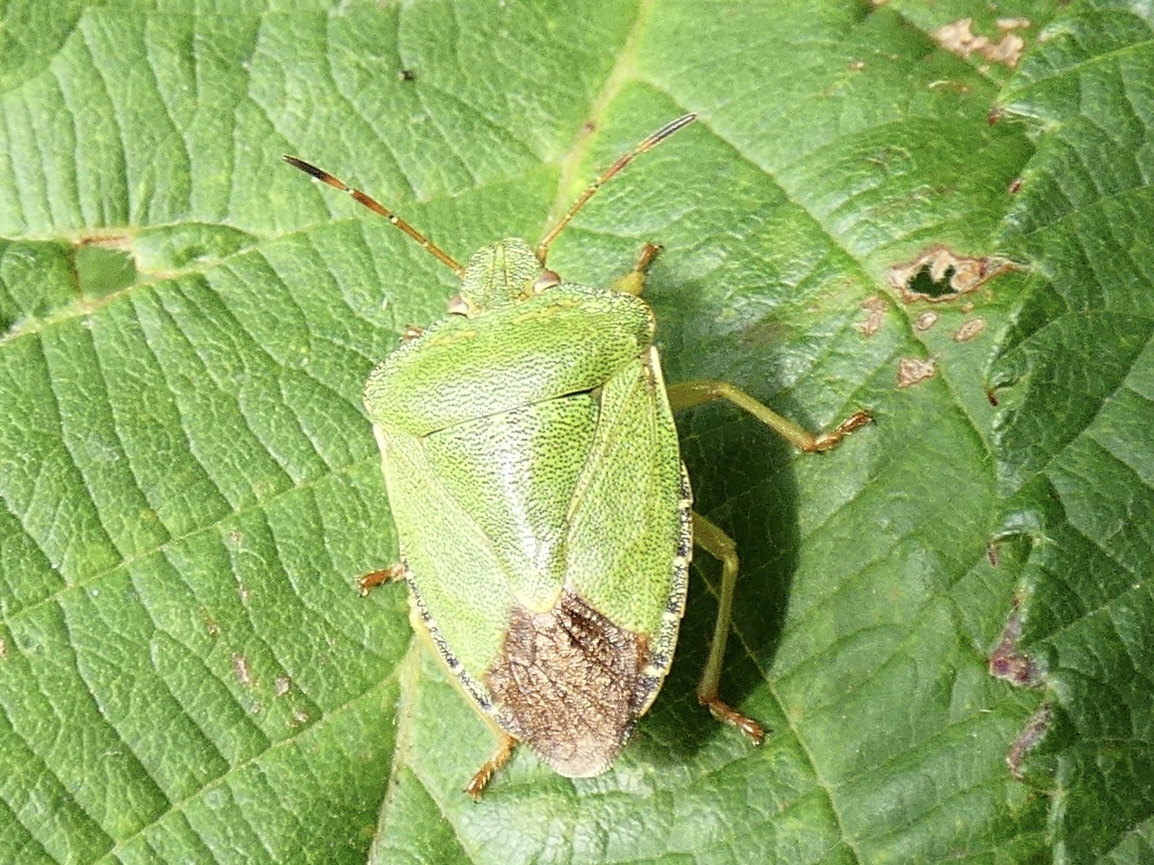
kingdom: Animalia
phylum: Arthropoda
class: Insecta
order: Hemiptera
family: Pentatomidae
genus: Palomena
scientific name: Palomena prasina
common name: Green shieldbug
